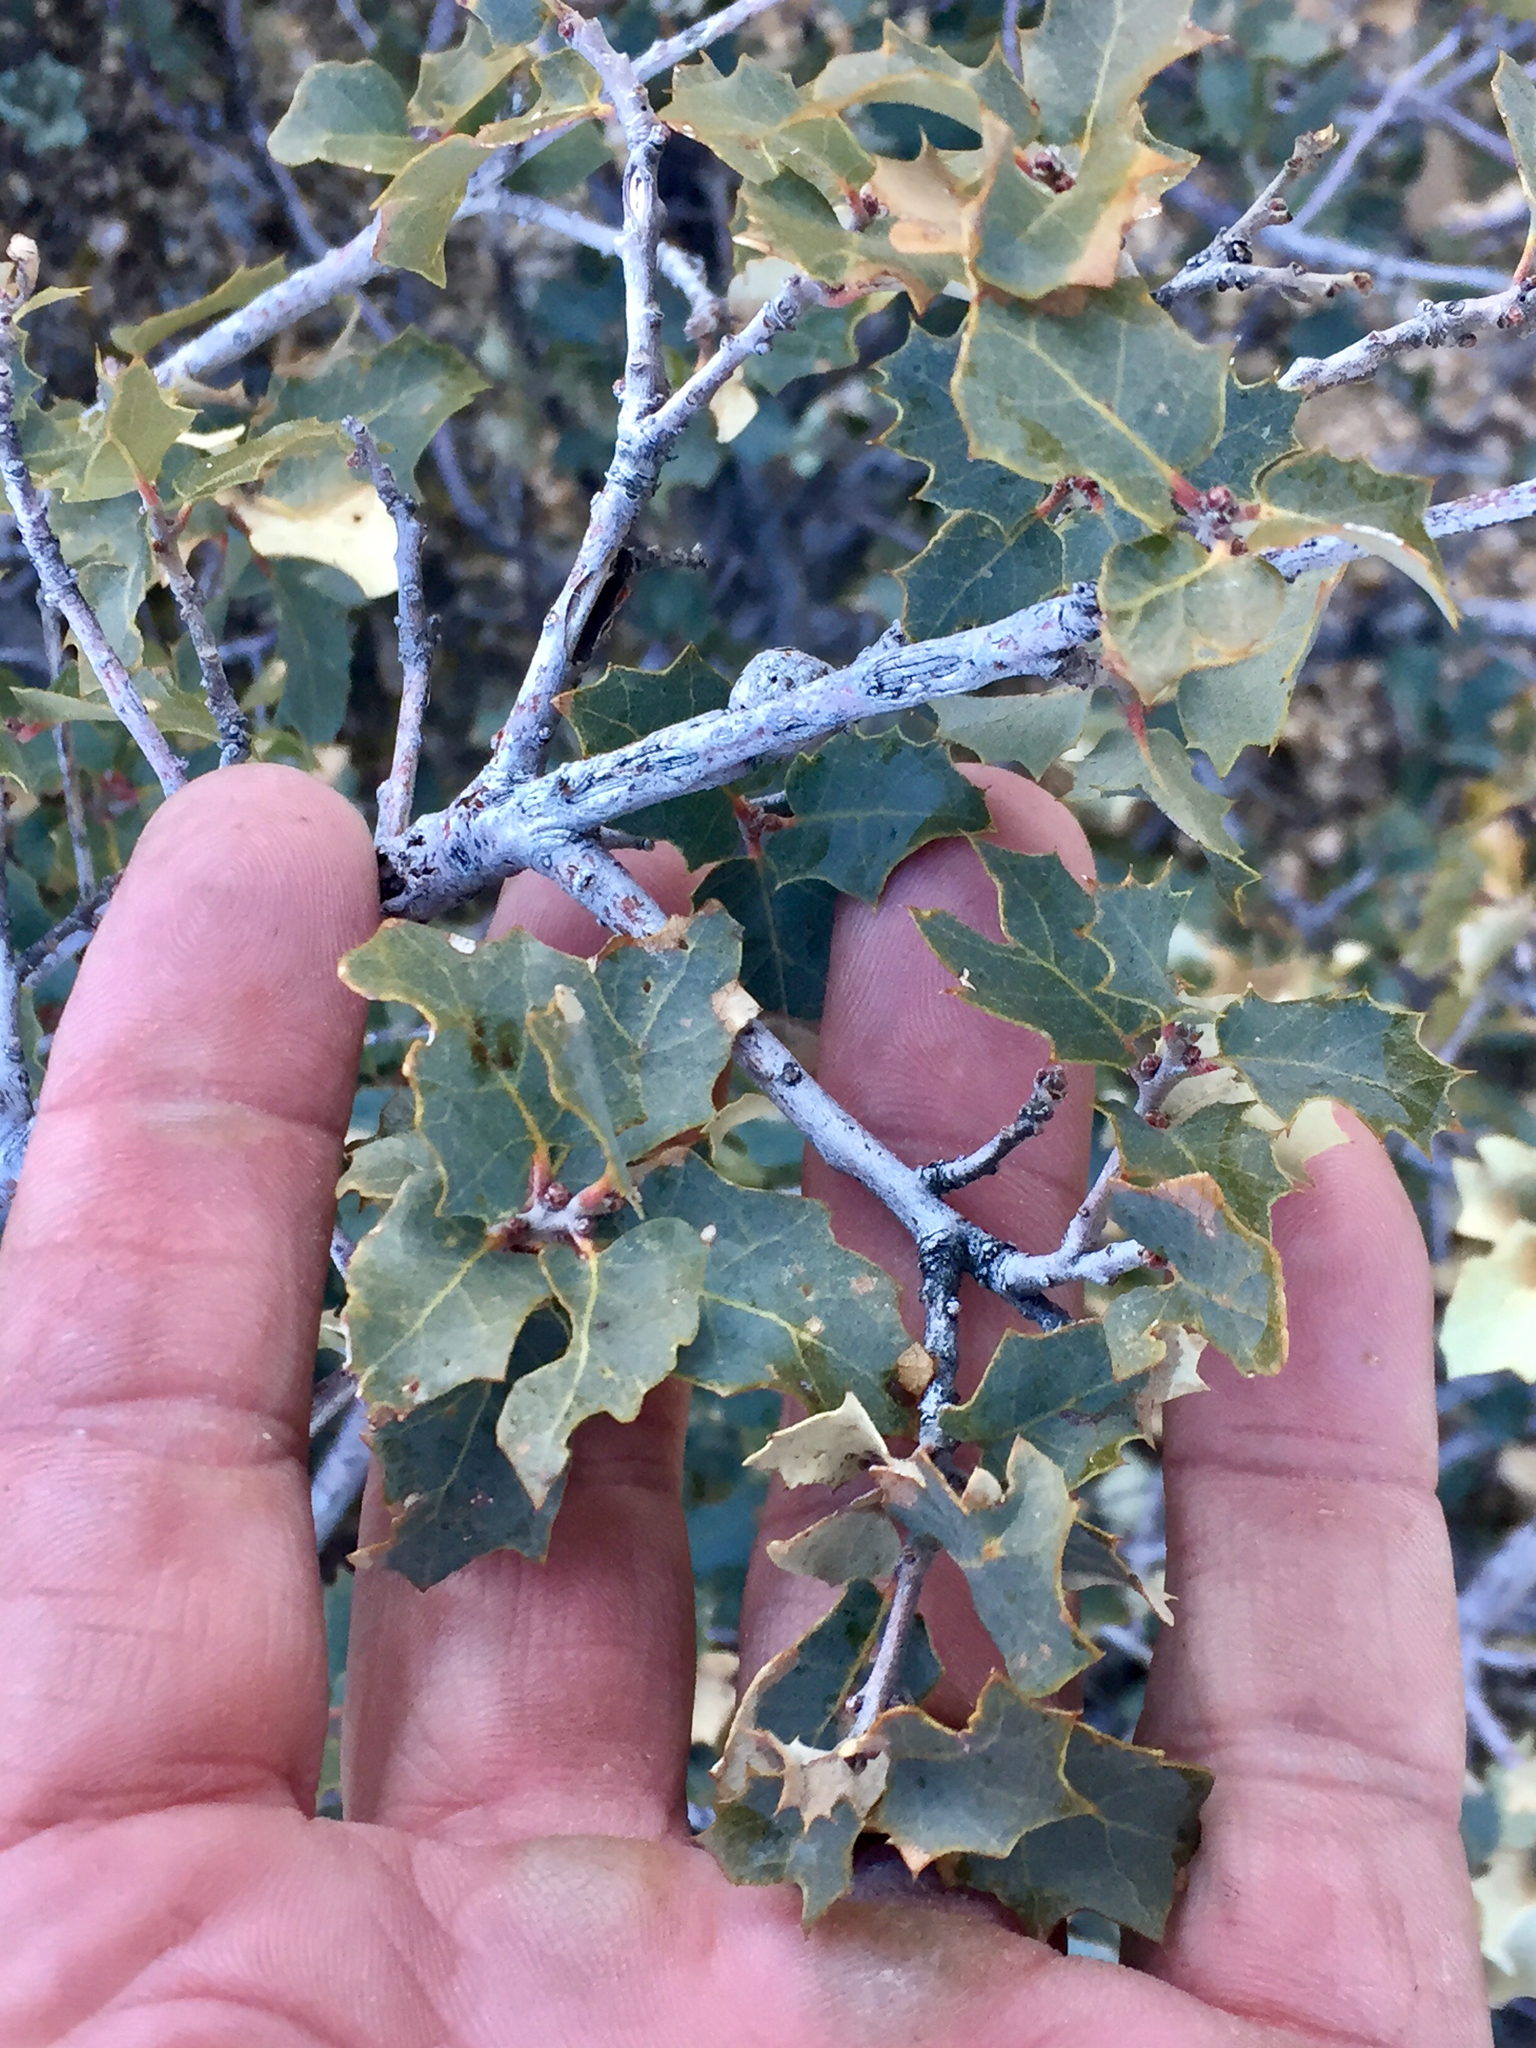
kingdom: Plantae
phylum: Tracheophyta
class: Magnoliopsida
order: Fagales
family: Fagaceae
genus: Quercus
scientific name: Quercus turbinella
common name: Sonoran scrub oak
